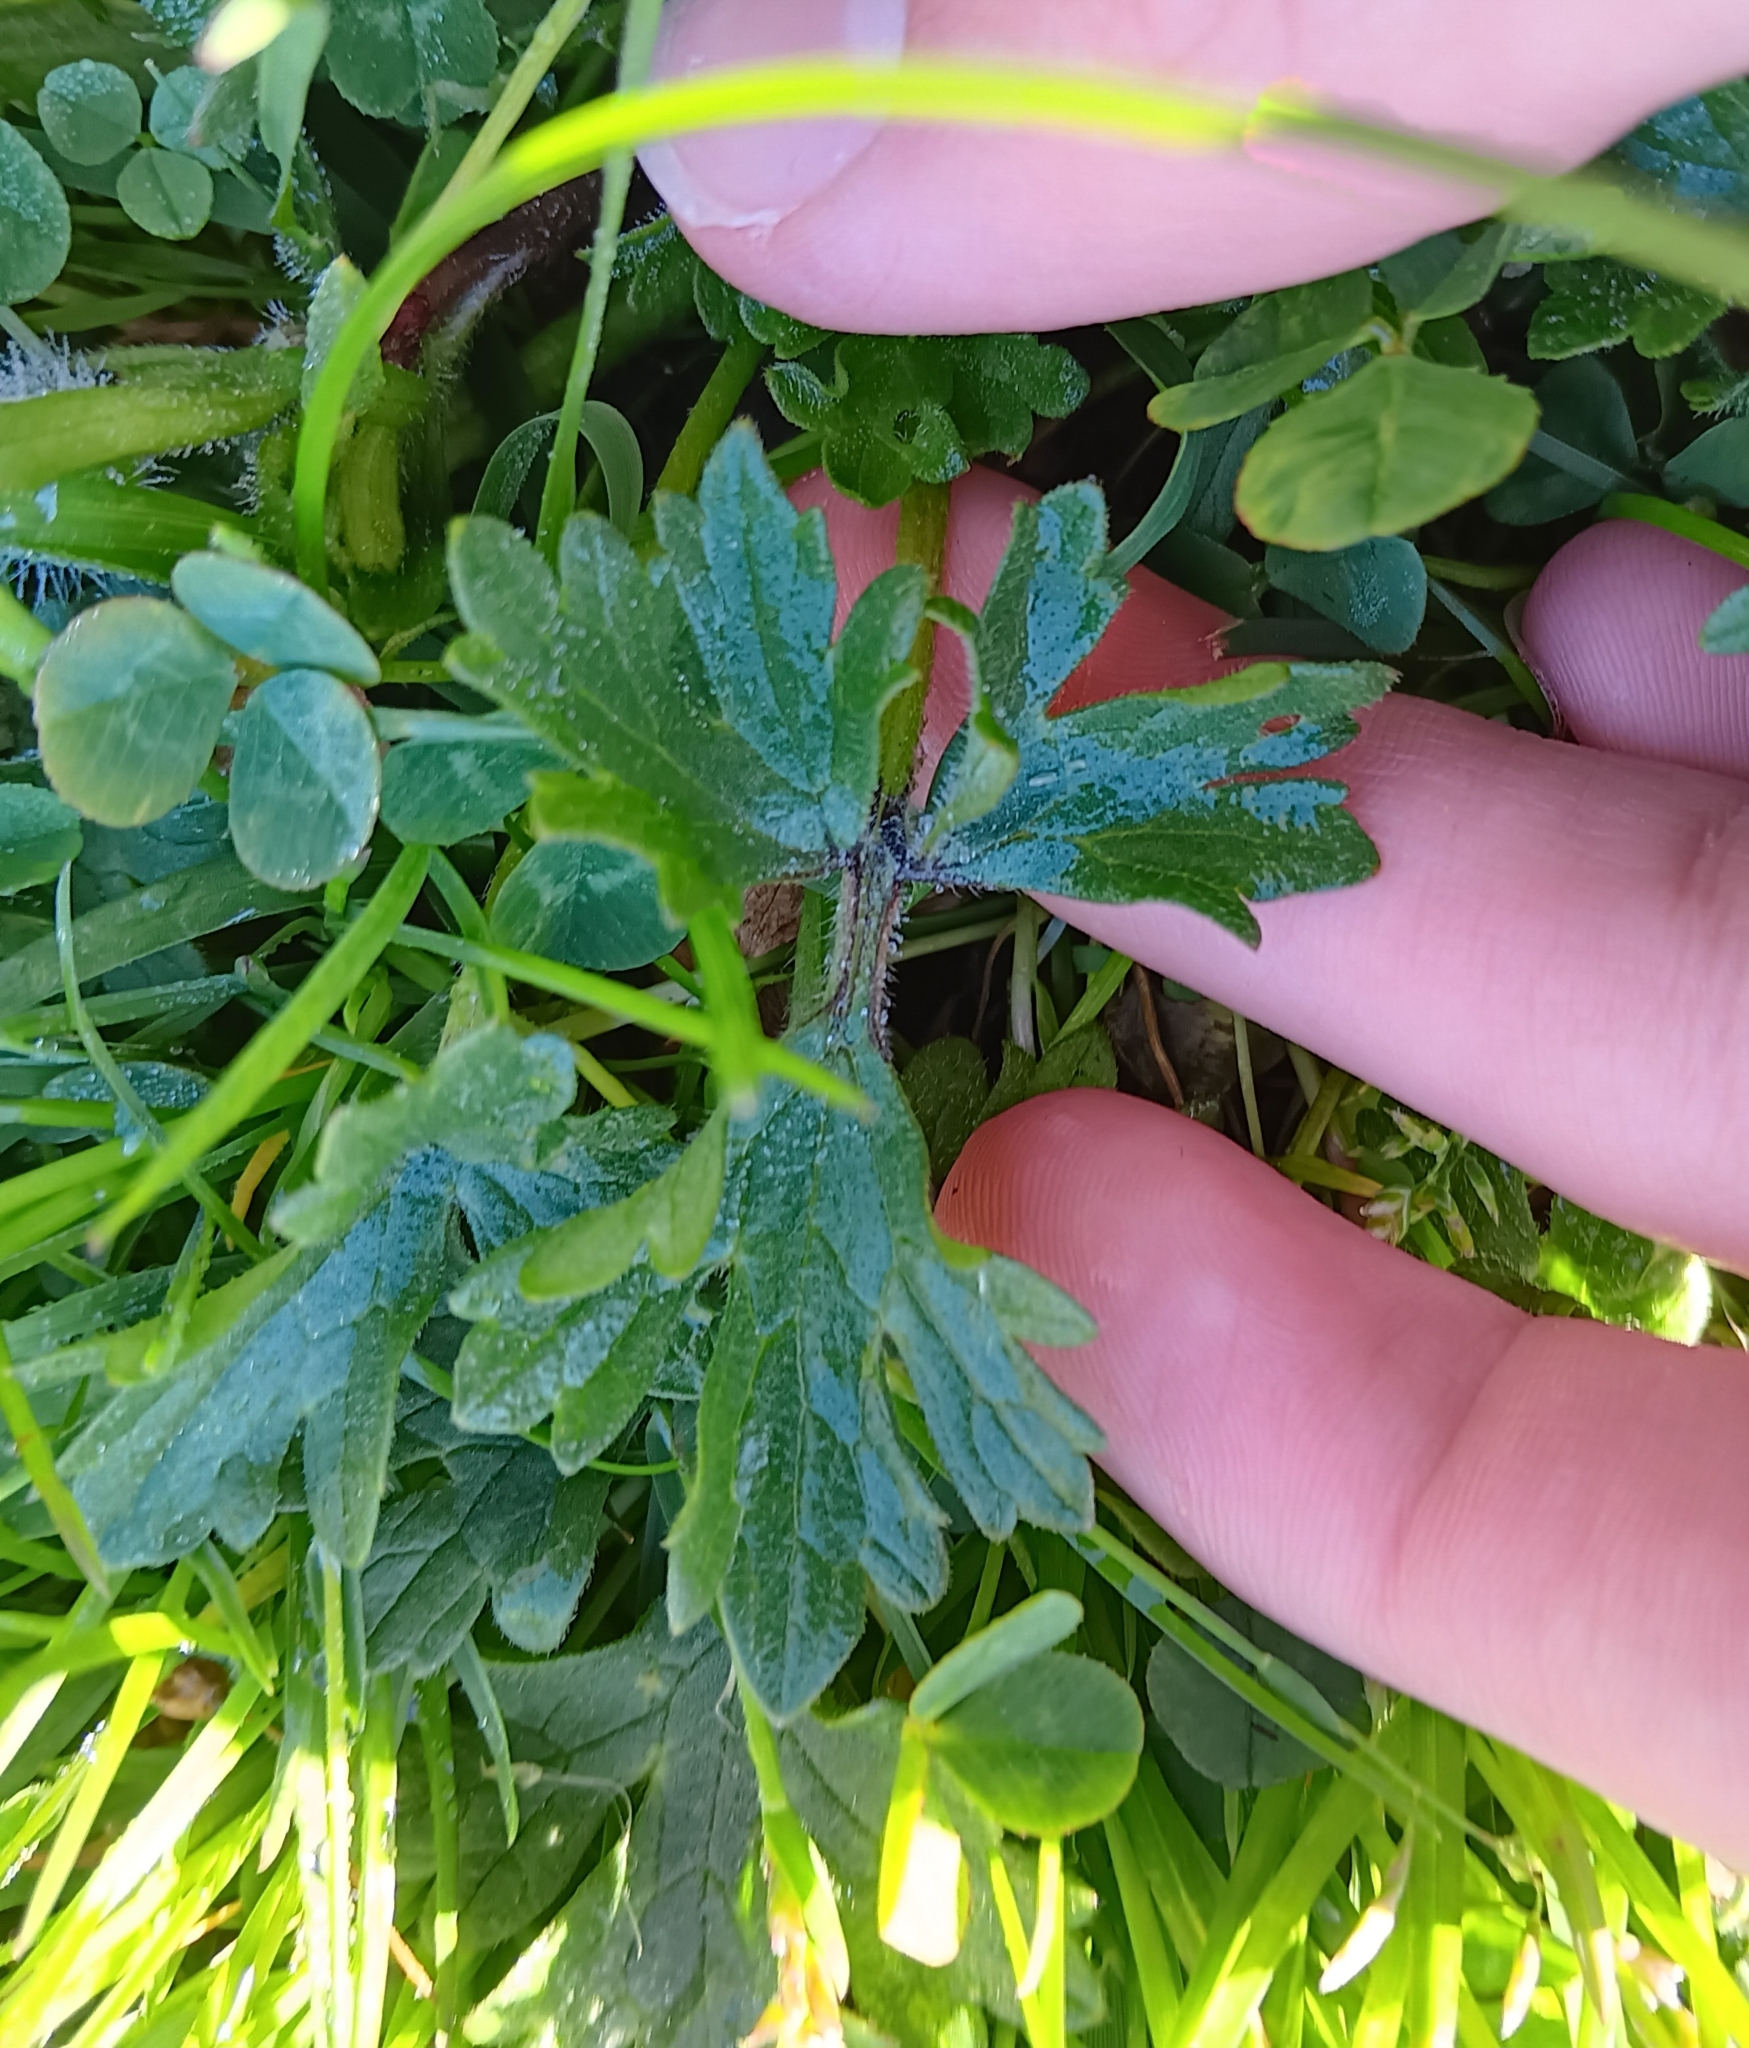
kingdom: Plantae
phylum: Tracheophyta
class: Magnoliopsida
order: Ranunculales
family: Ranunculaceae
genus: Ranunculus
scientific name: Ranunculus bulbosus
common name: Bulbous buttercup
